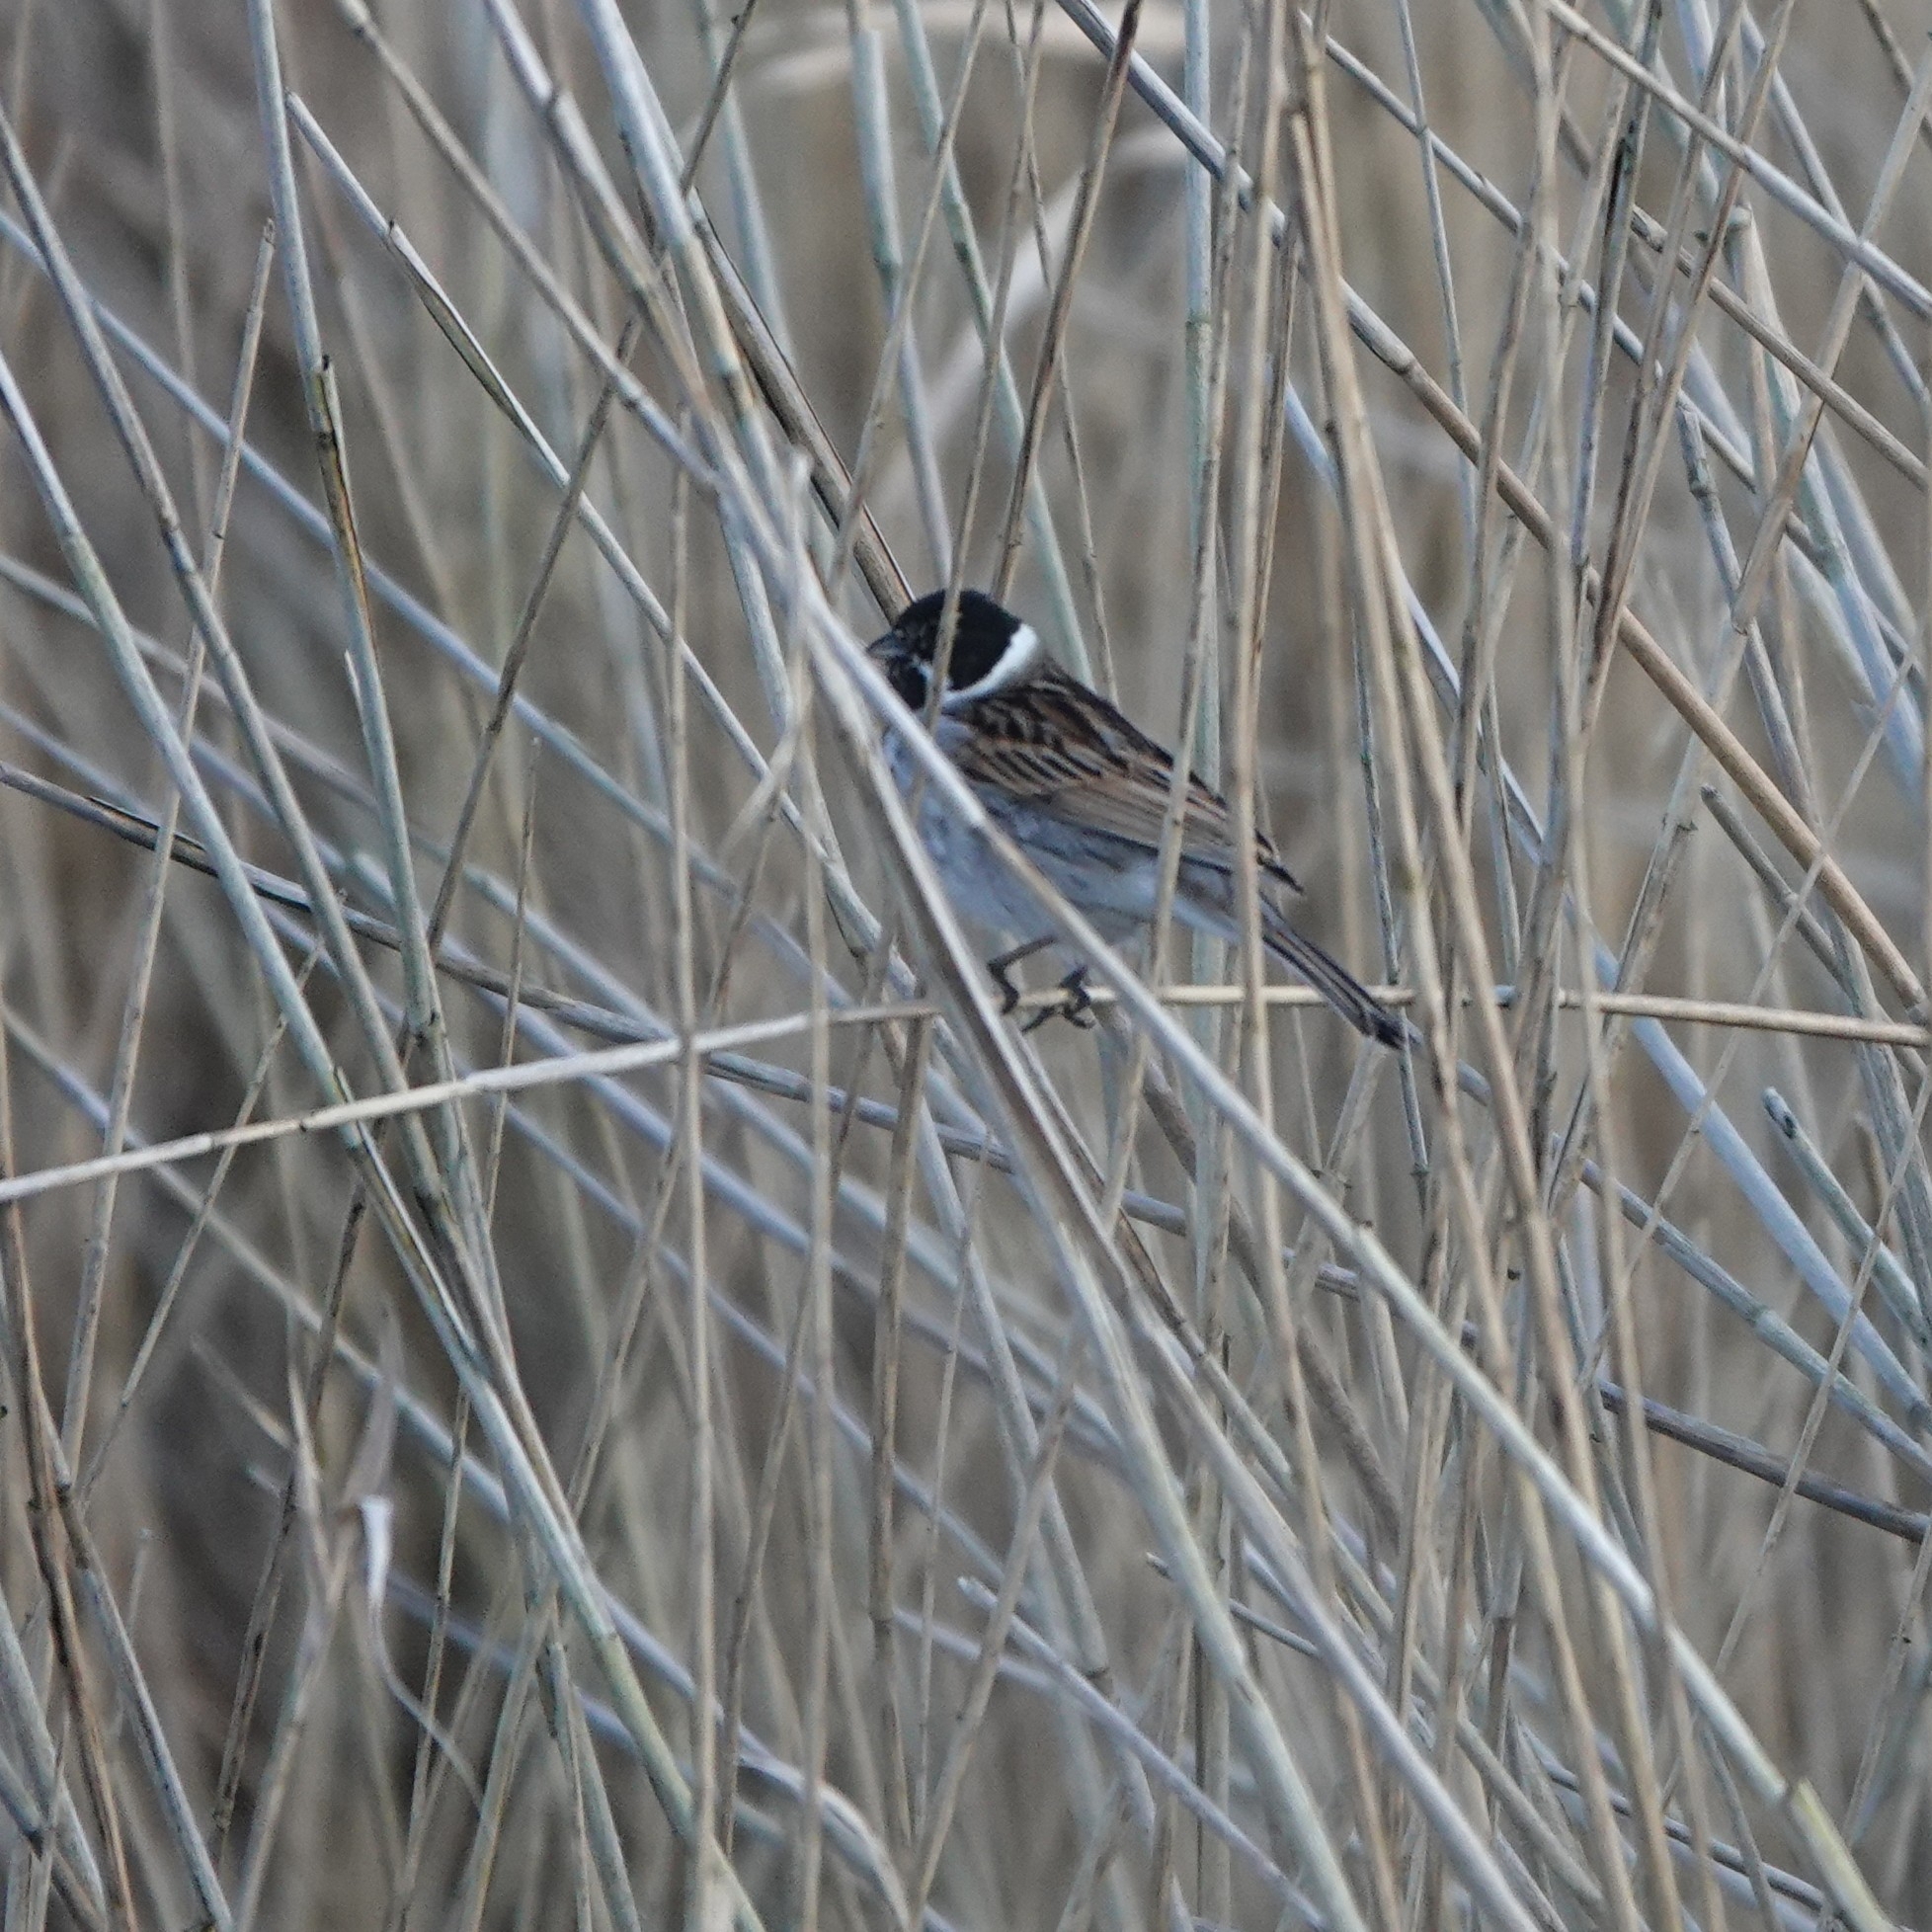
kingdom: Animalia
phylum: Chordata
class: Aves
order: Passeriformes
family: Emberizidae
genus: Emberiza
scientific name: Emberiza schoeniclus
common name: Reed bunting
